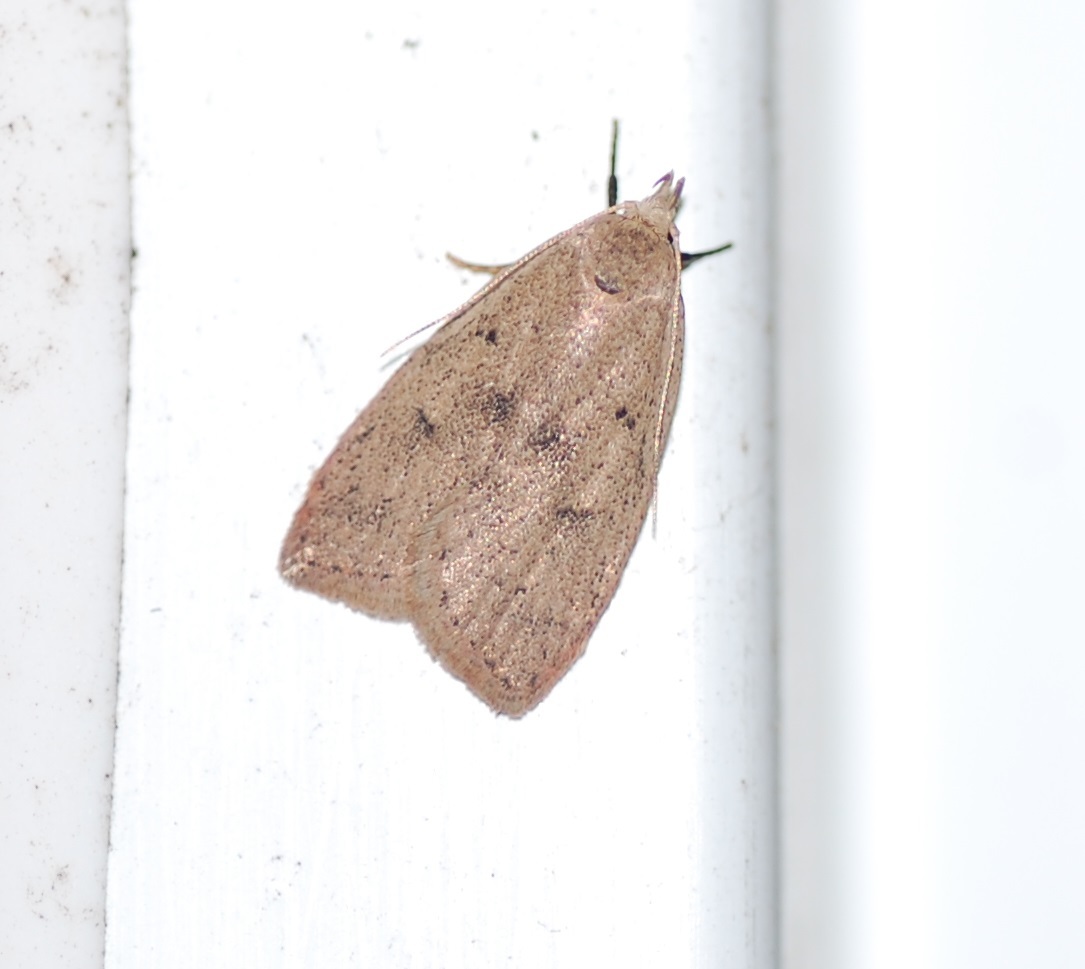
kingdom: Animalia
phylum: Arthropoda
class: Insecta
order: Lepidoptera
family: Peleopodidae
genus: Machimia
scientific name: Machimia tentoriferella
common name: Gold-striped leaftier moth
